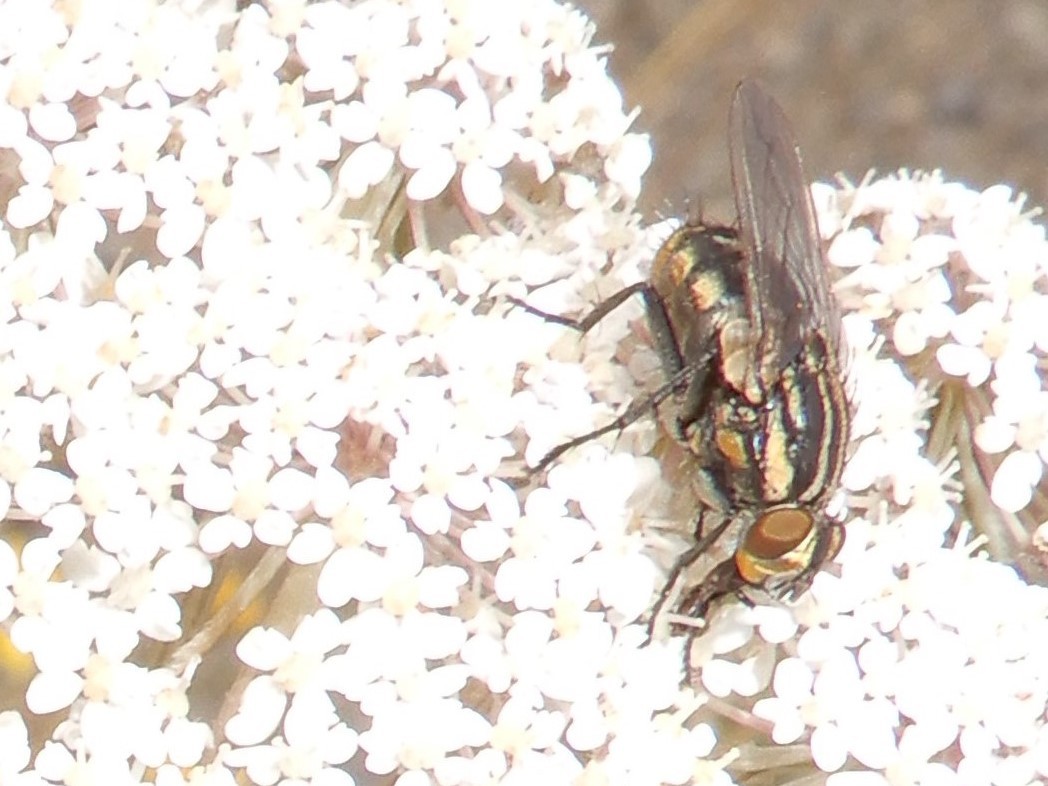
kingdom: Animalia
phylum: Arthropoda
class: Insecta
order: Diptera
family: Sarcophagidae
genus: Oxysarcodexia
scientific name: Oxysarcodexia varia
